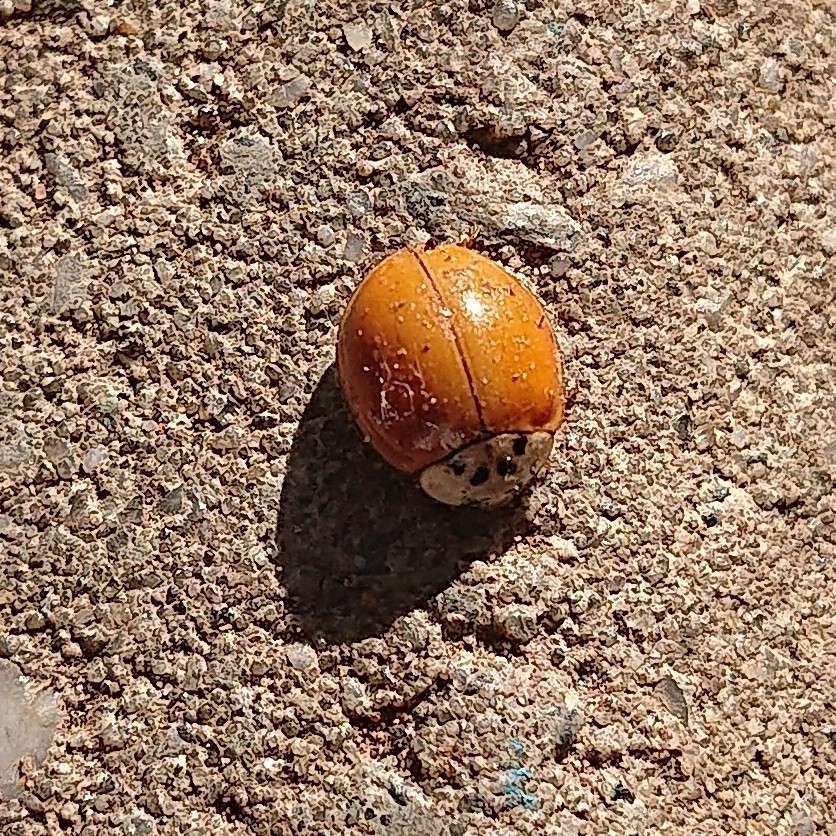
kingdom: Animalia
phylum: Arthropoda
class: Insecta
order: Coleoptera
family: Coccinellidae
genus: Harmonia
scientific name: Harmonia axyridis
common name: Harlequin ladybird
